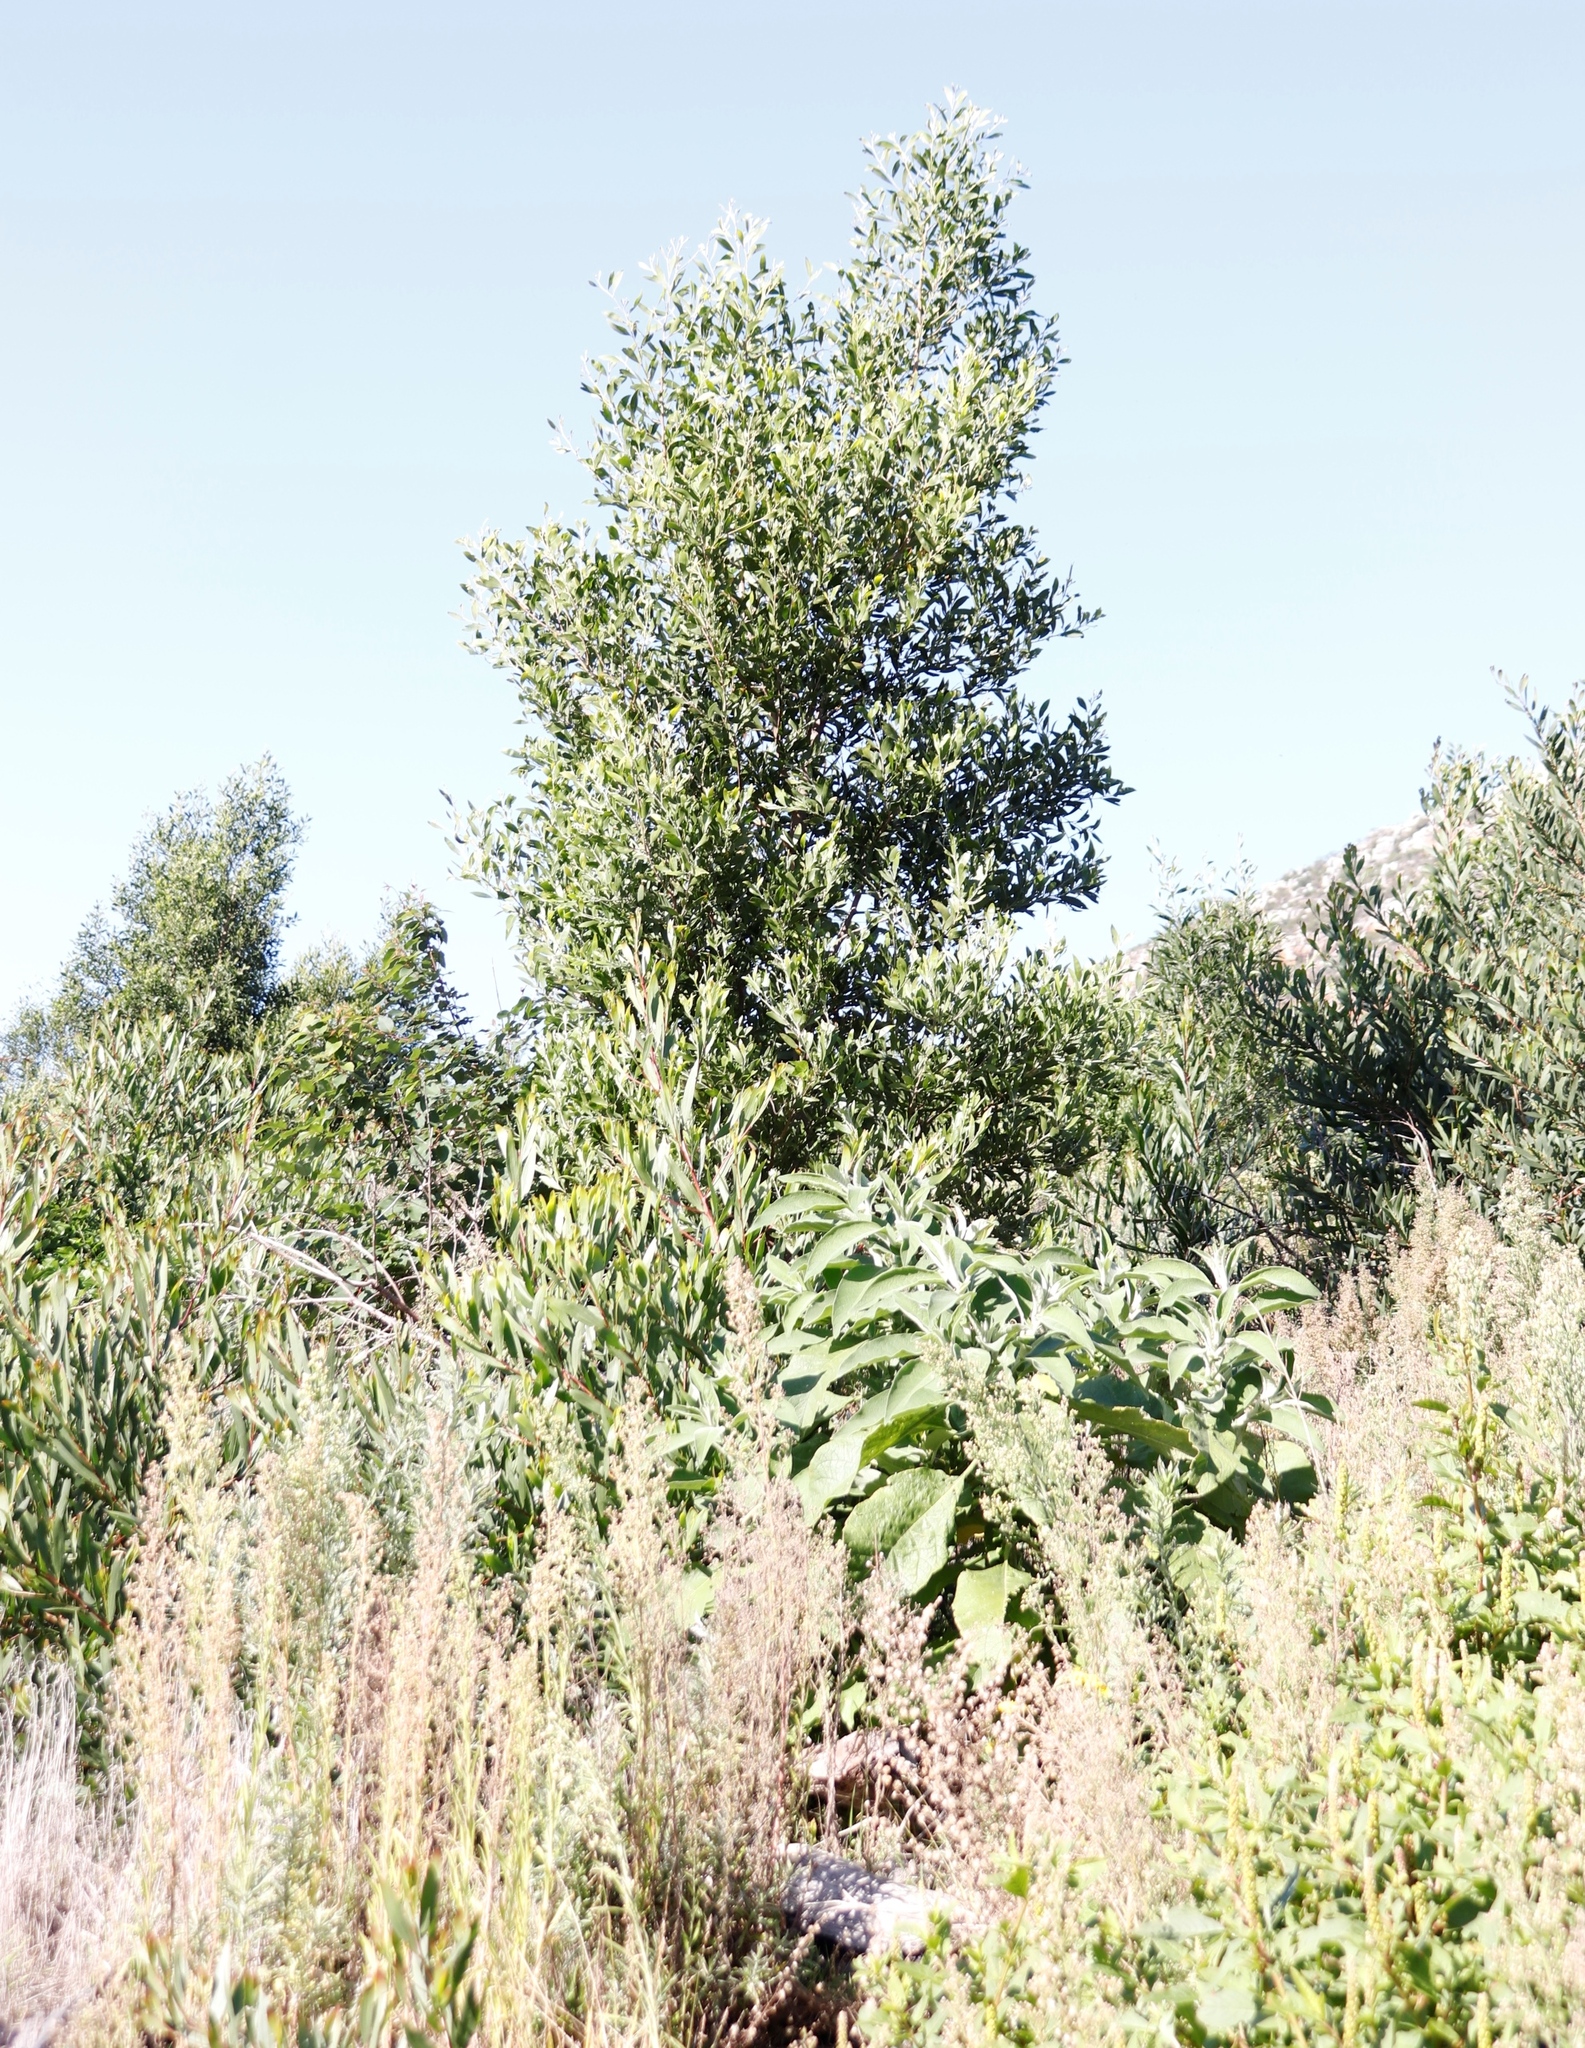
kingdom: Plantae
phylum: Tracheophyta
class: Magnoliopsida
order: Fabales
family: Fabaceae
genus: Acacia
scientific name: Acacia melanoxylon
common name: Blackwood
